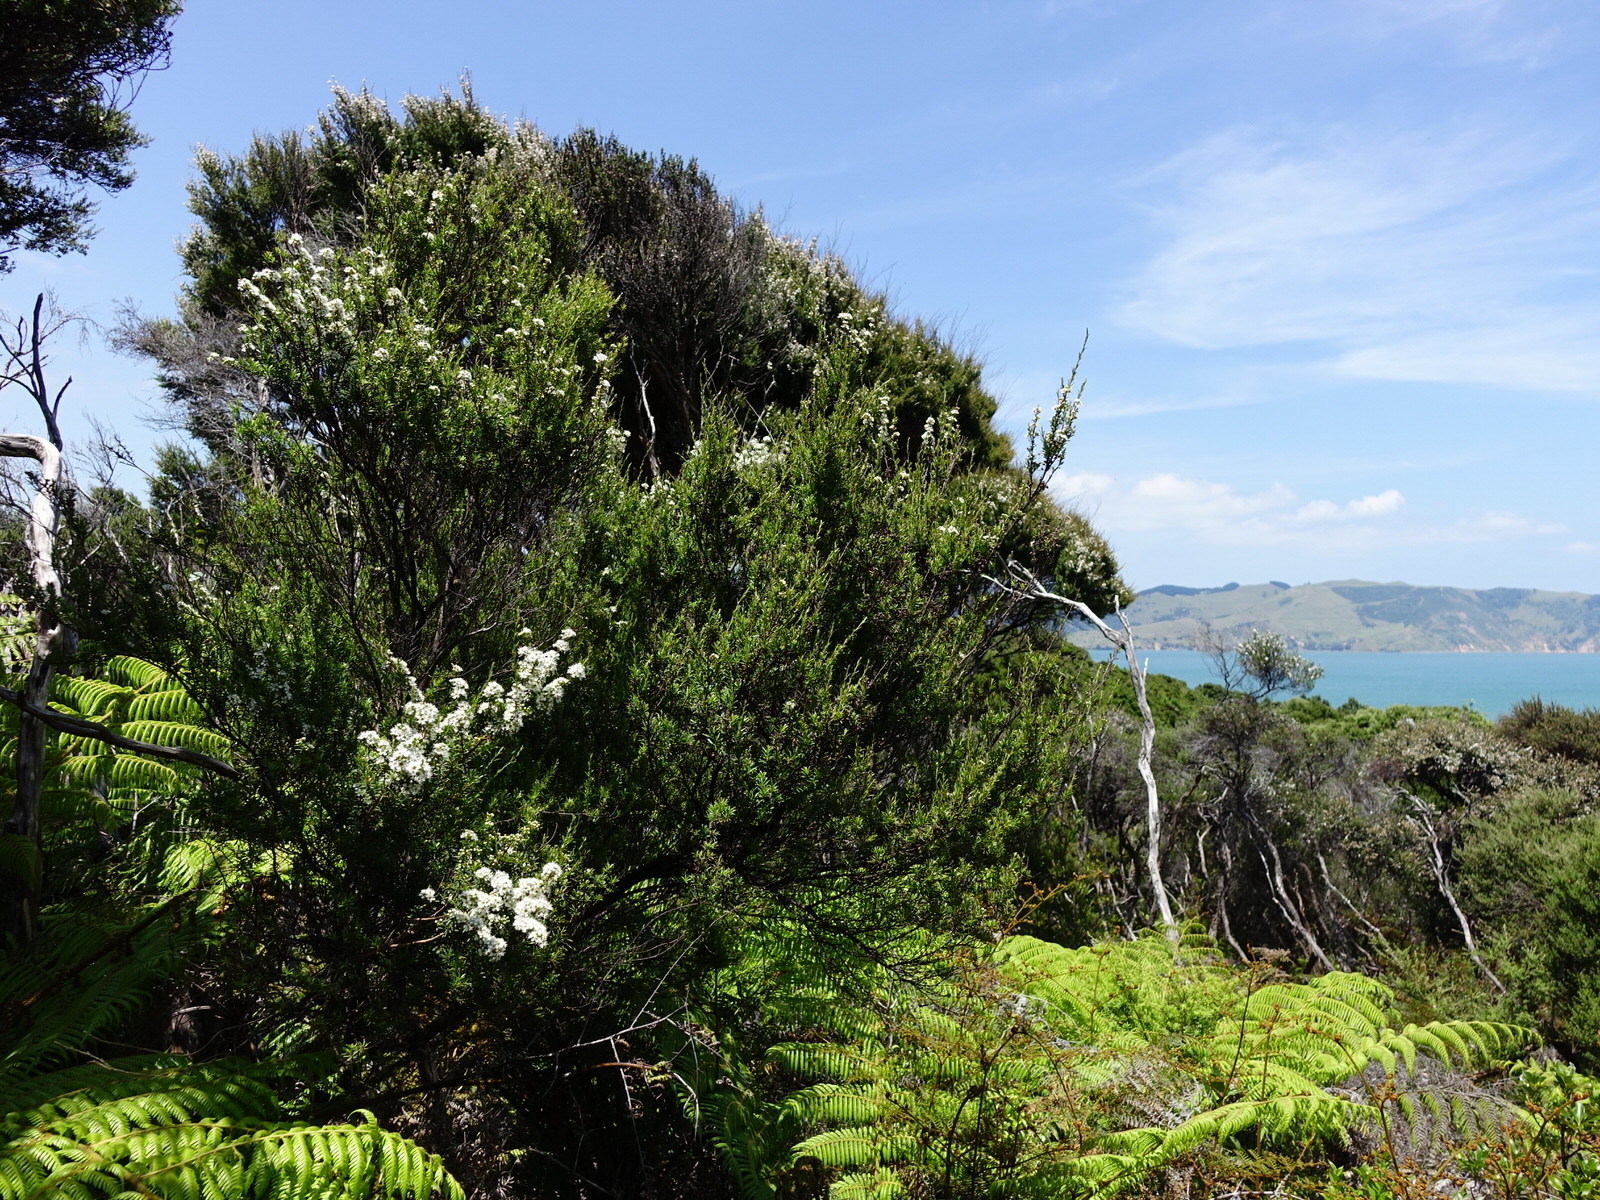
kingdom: Plantae
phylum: Tracheophyta
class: Magnoliopsida
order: Myrtales
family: Myrtaceae
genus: Kunzea
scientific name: Kunzea robusta
